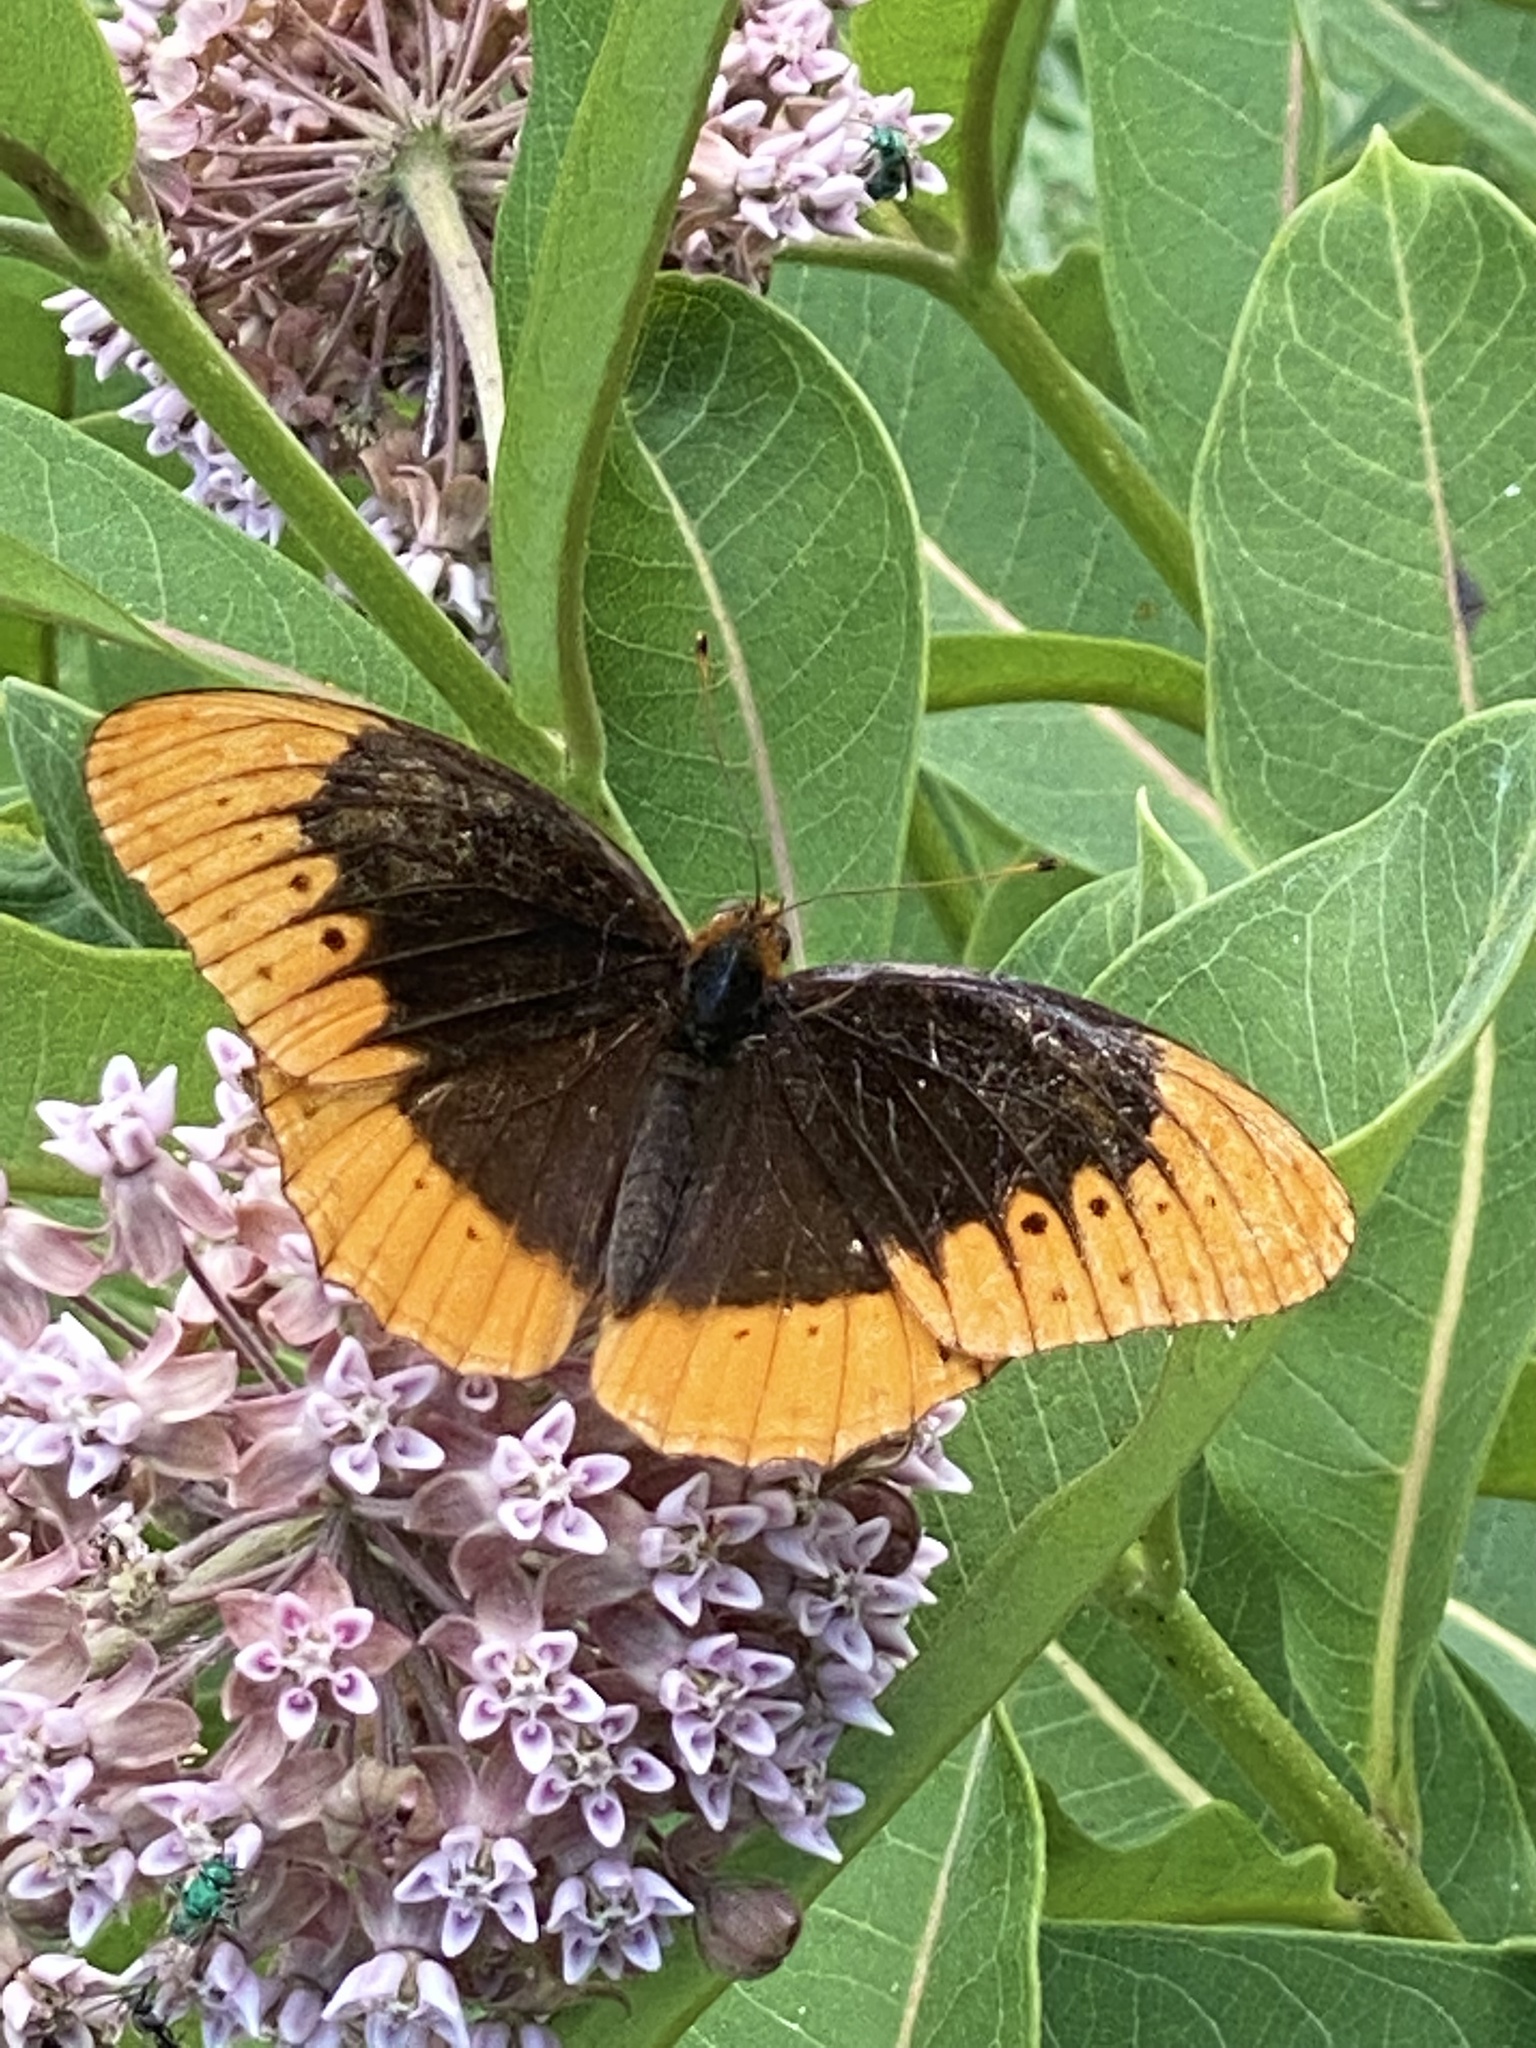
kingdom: Animalia
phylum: Arthropoda
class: Insecta
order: Lepidoptera
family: Nymphalidae
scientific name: Nymphalidae
